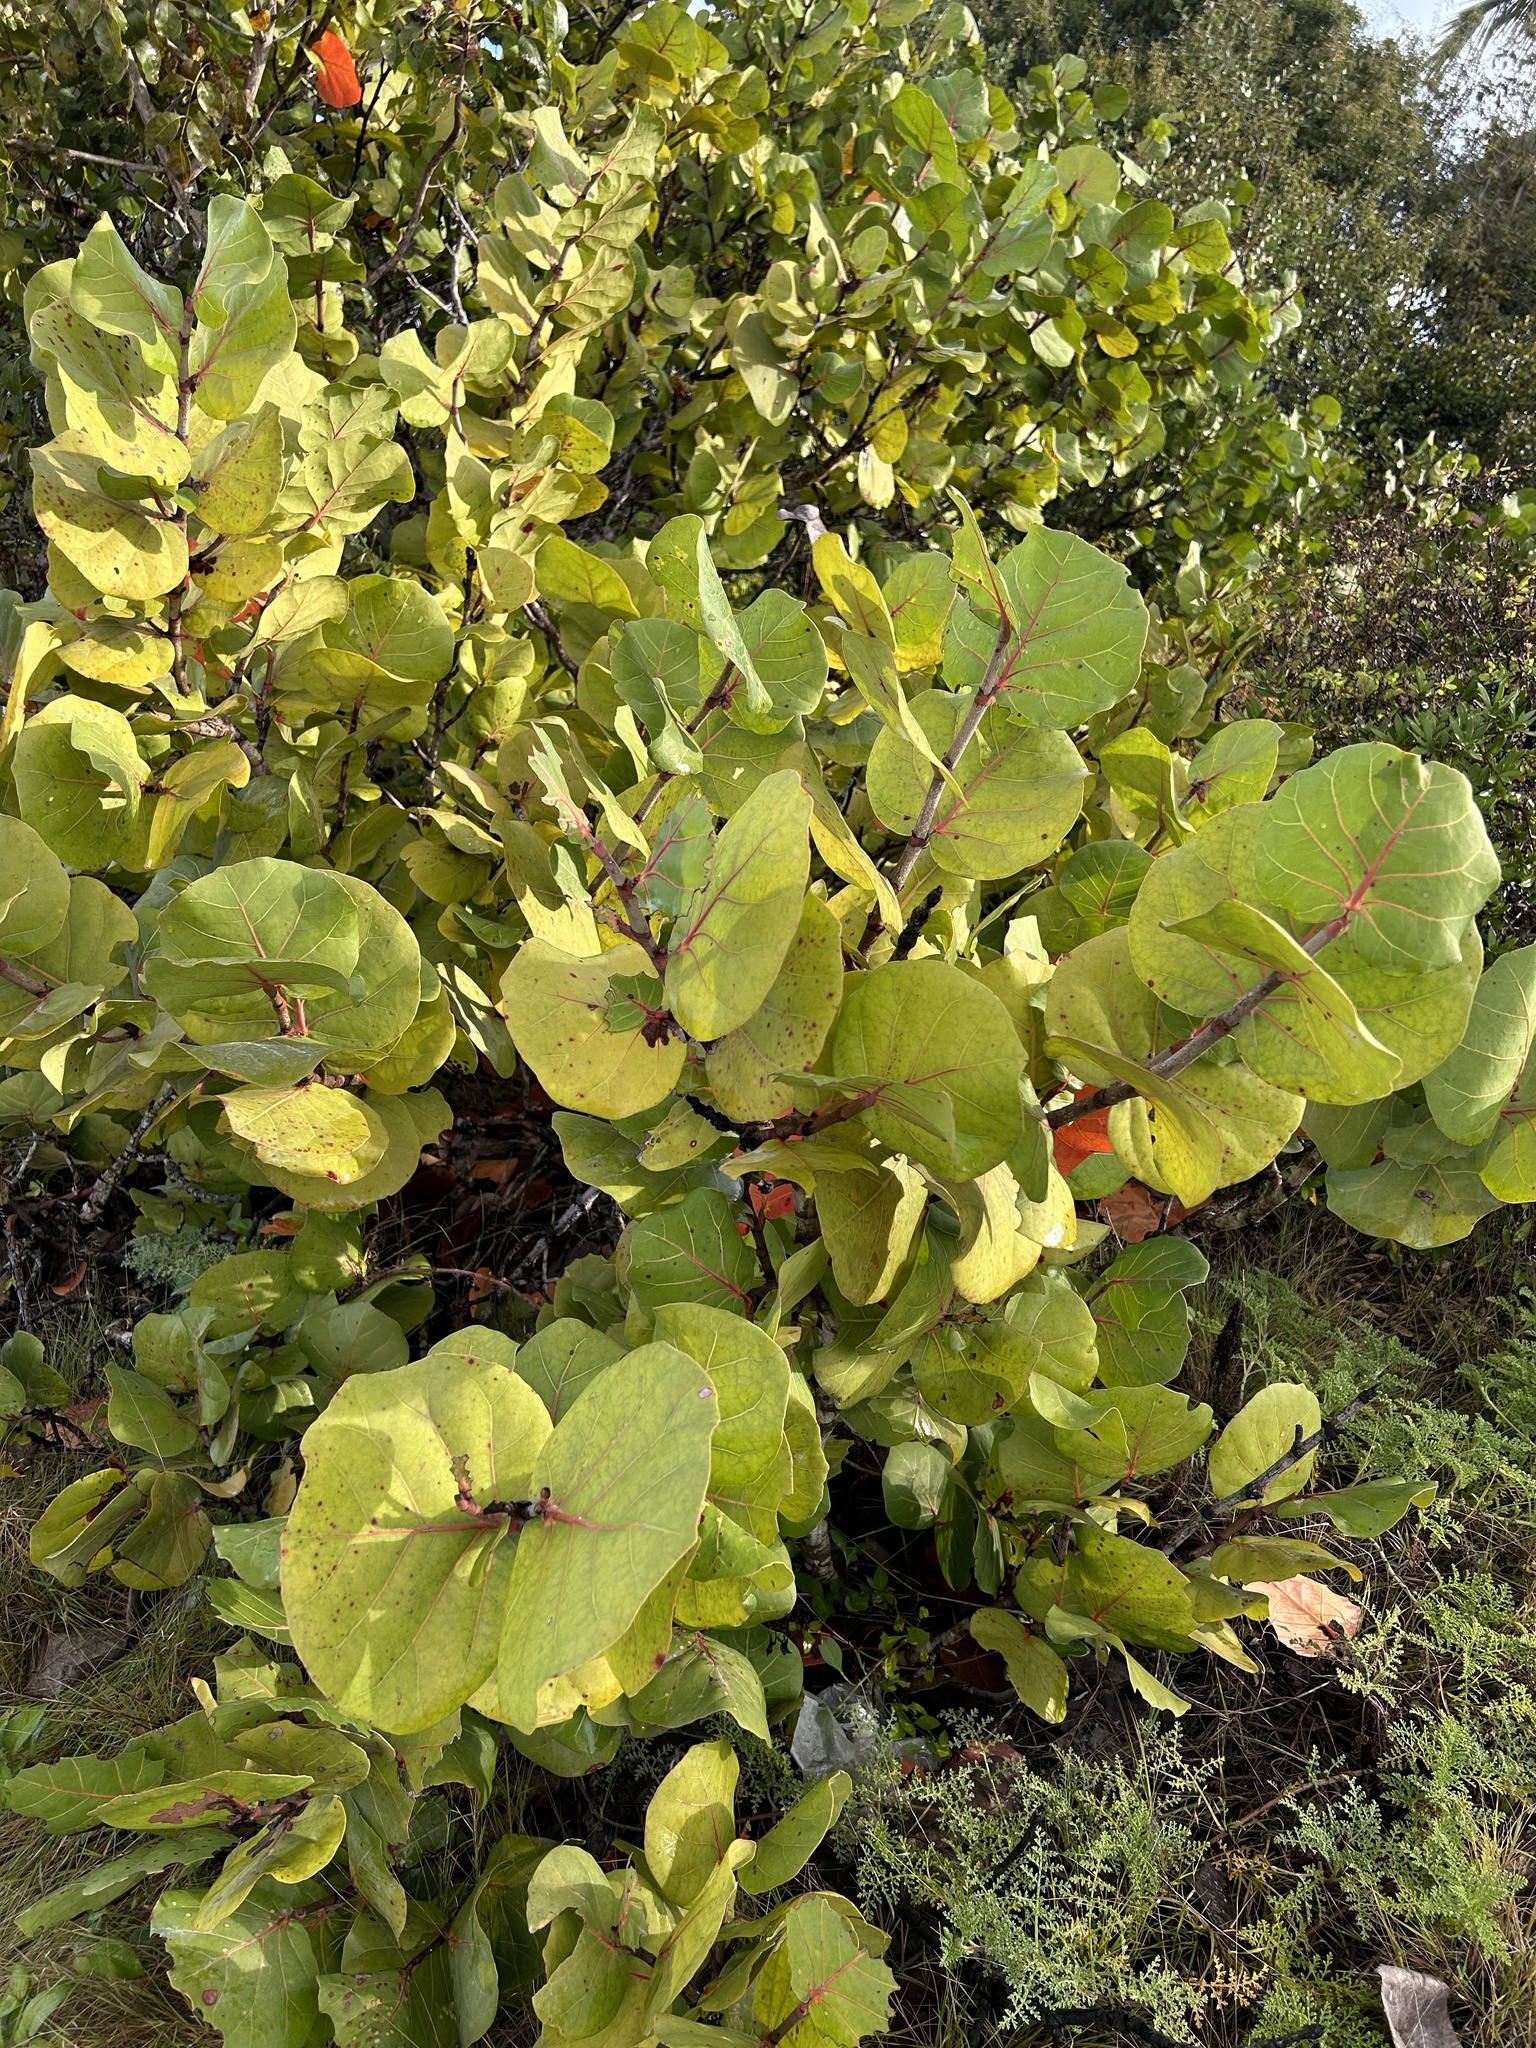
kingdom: Plantae
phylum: Tracheophyta
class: Magnoliopsida
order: Caryophyllales
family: Polygonaceae
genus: Coccoloba
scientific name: Coccoloba uvifera
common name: Seagrape
